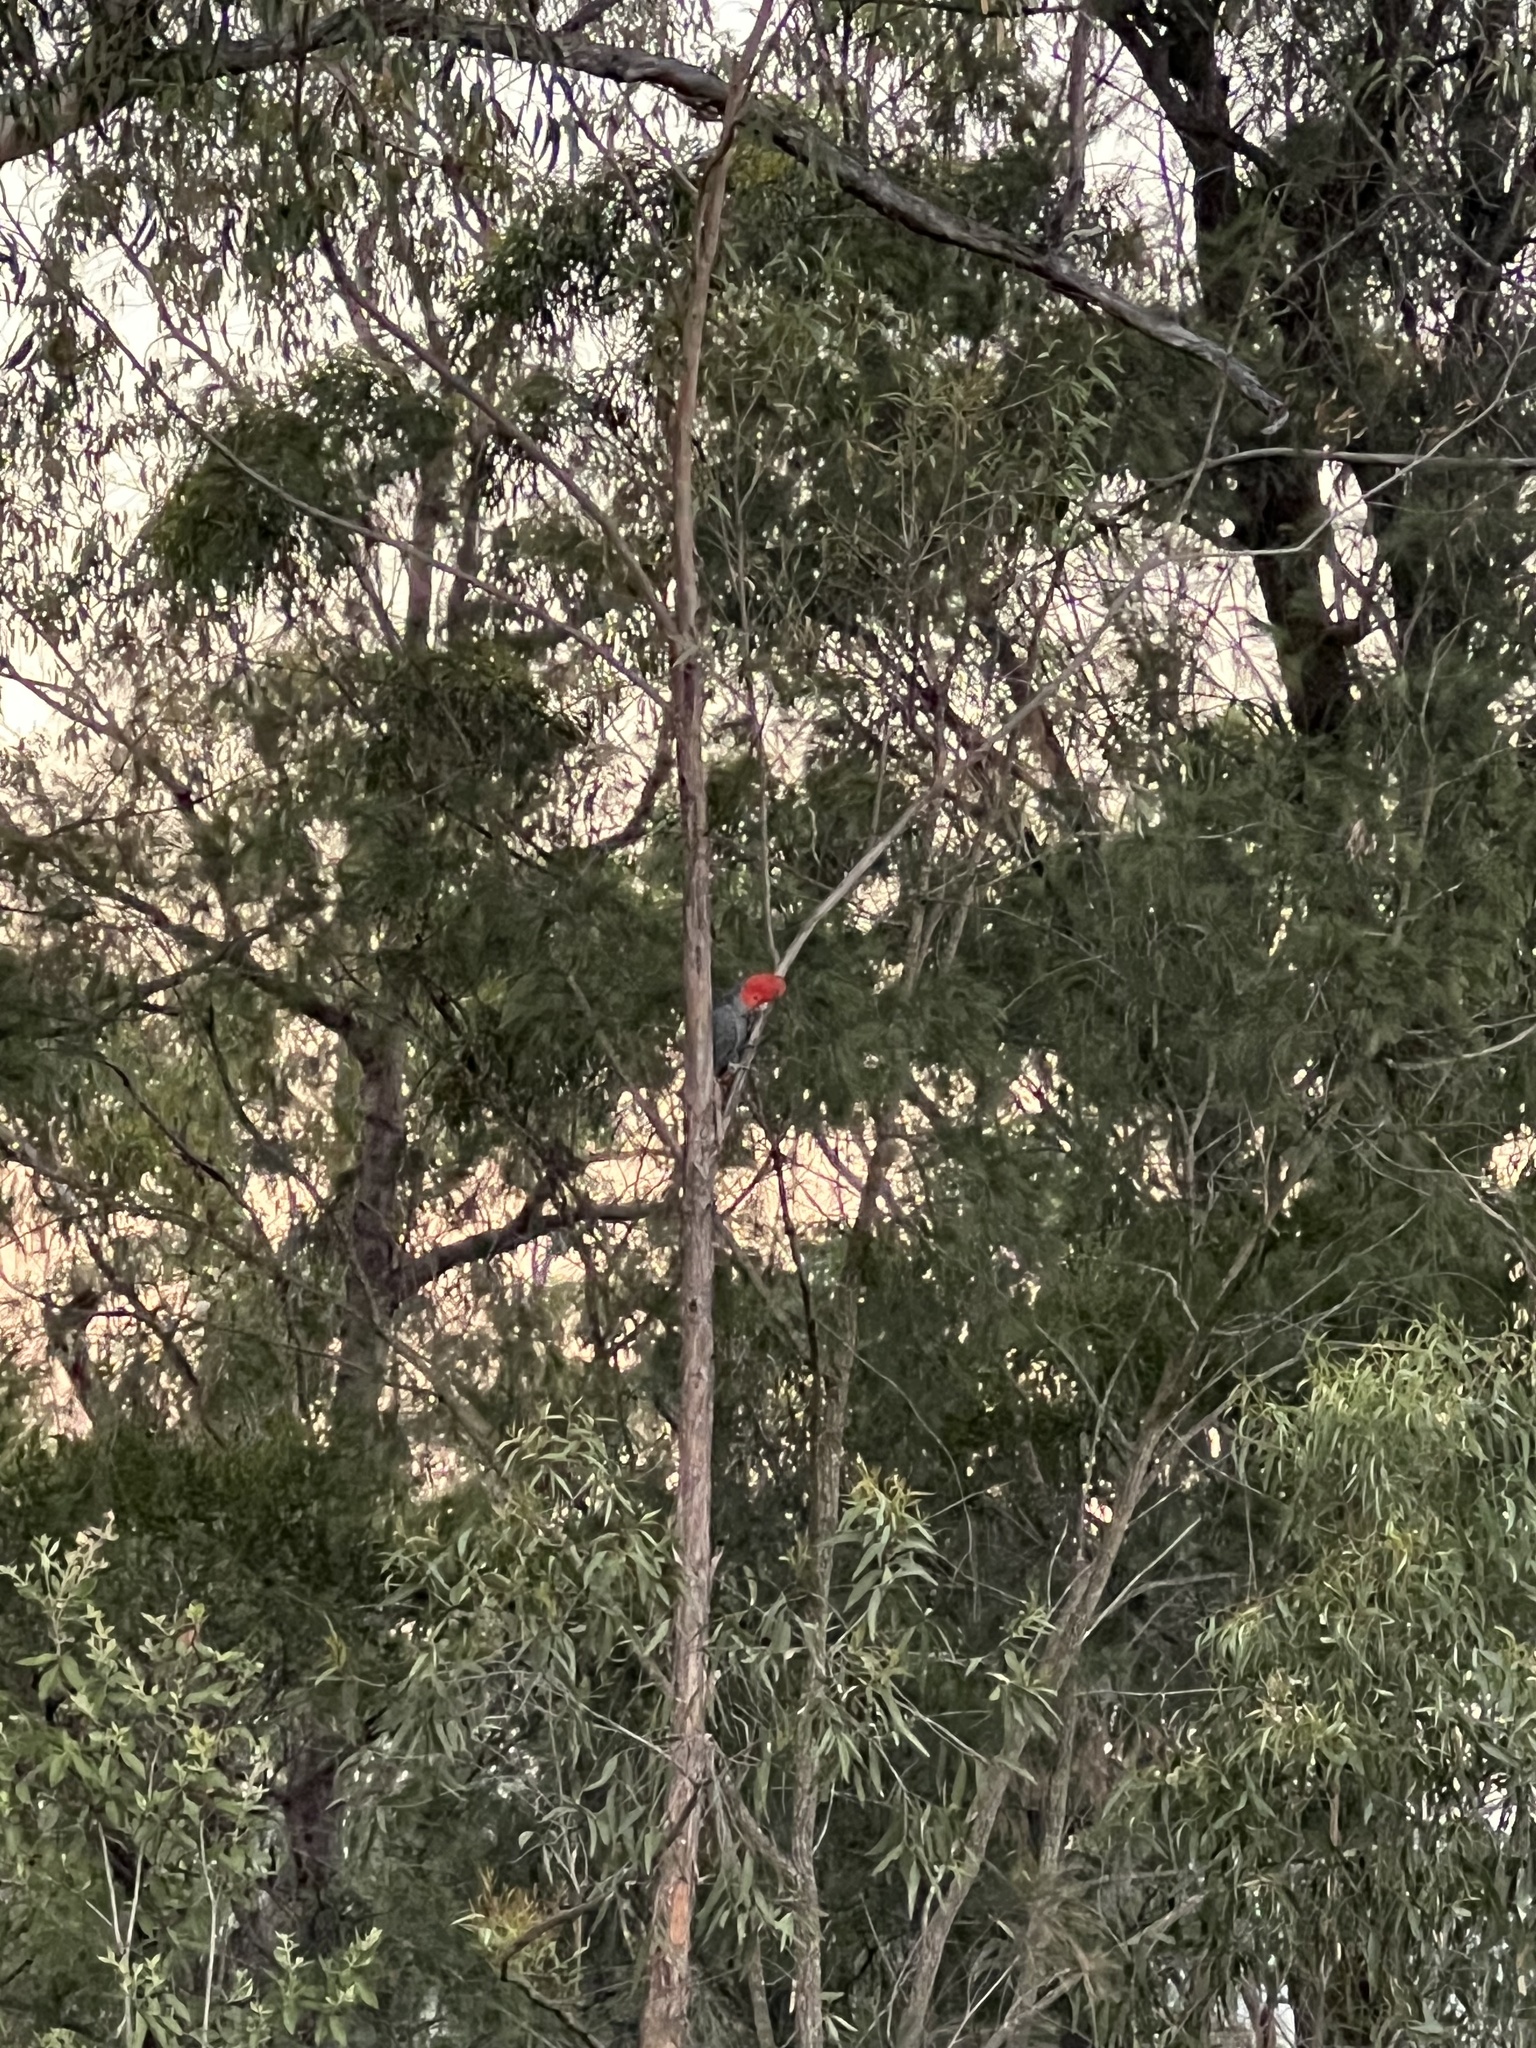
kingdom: Animalia
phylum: Chordata
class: Aves
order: Psittaciformes
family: Psittacidae
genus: Callocephalon
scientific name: Callocephalon fimbriatum
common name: Gang-gang cockatoo
